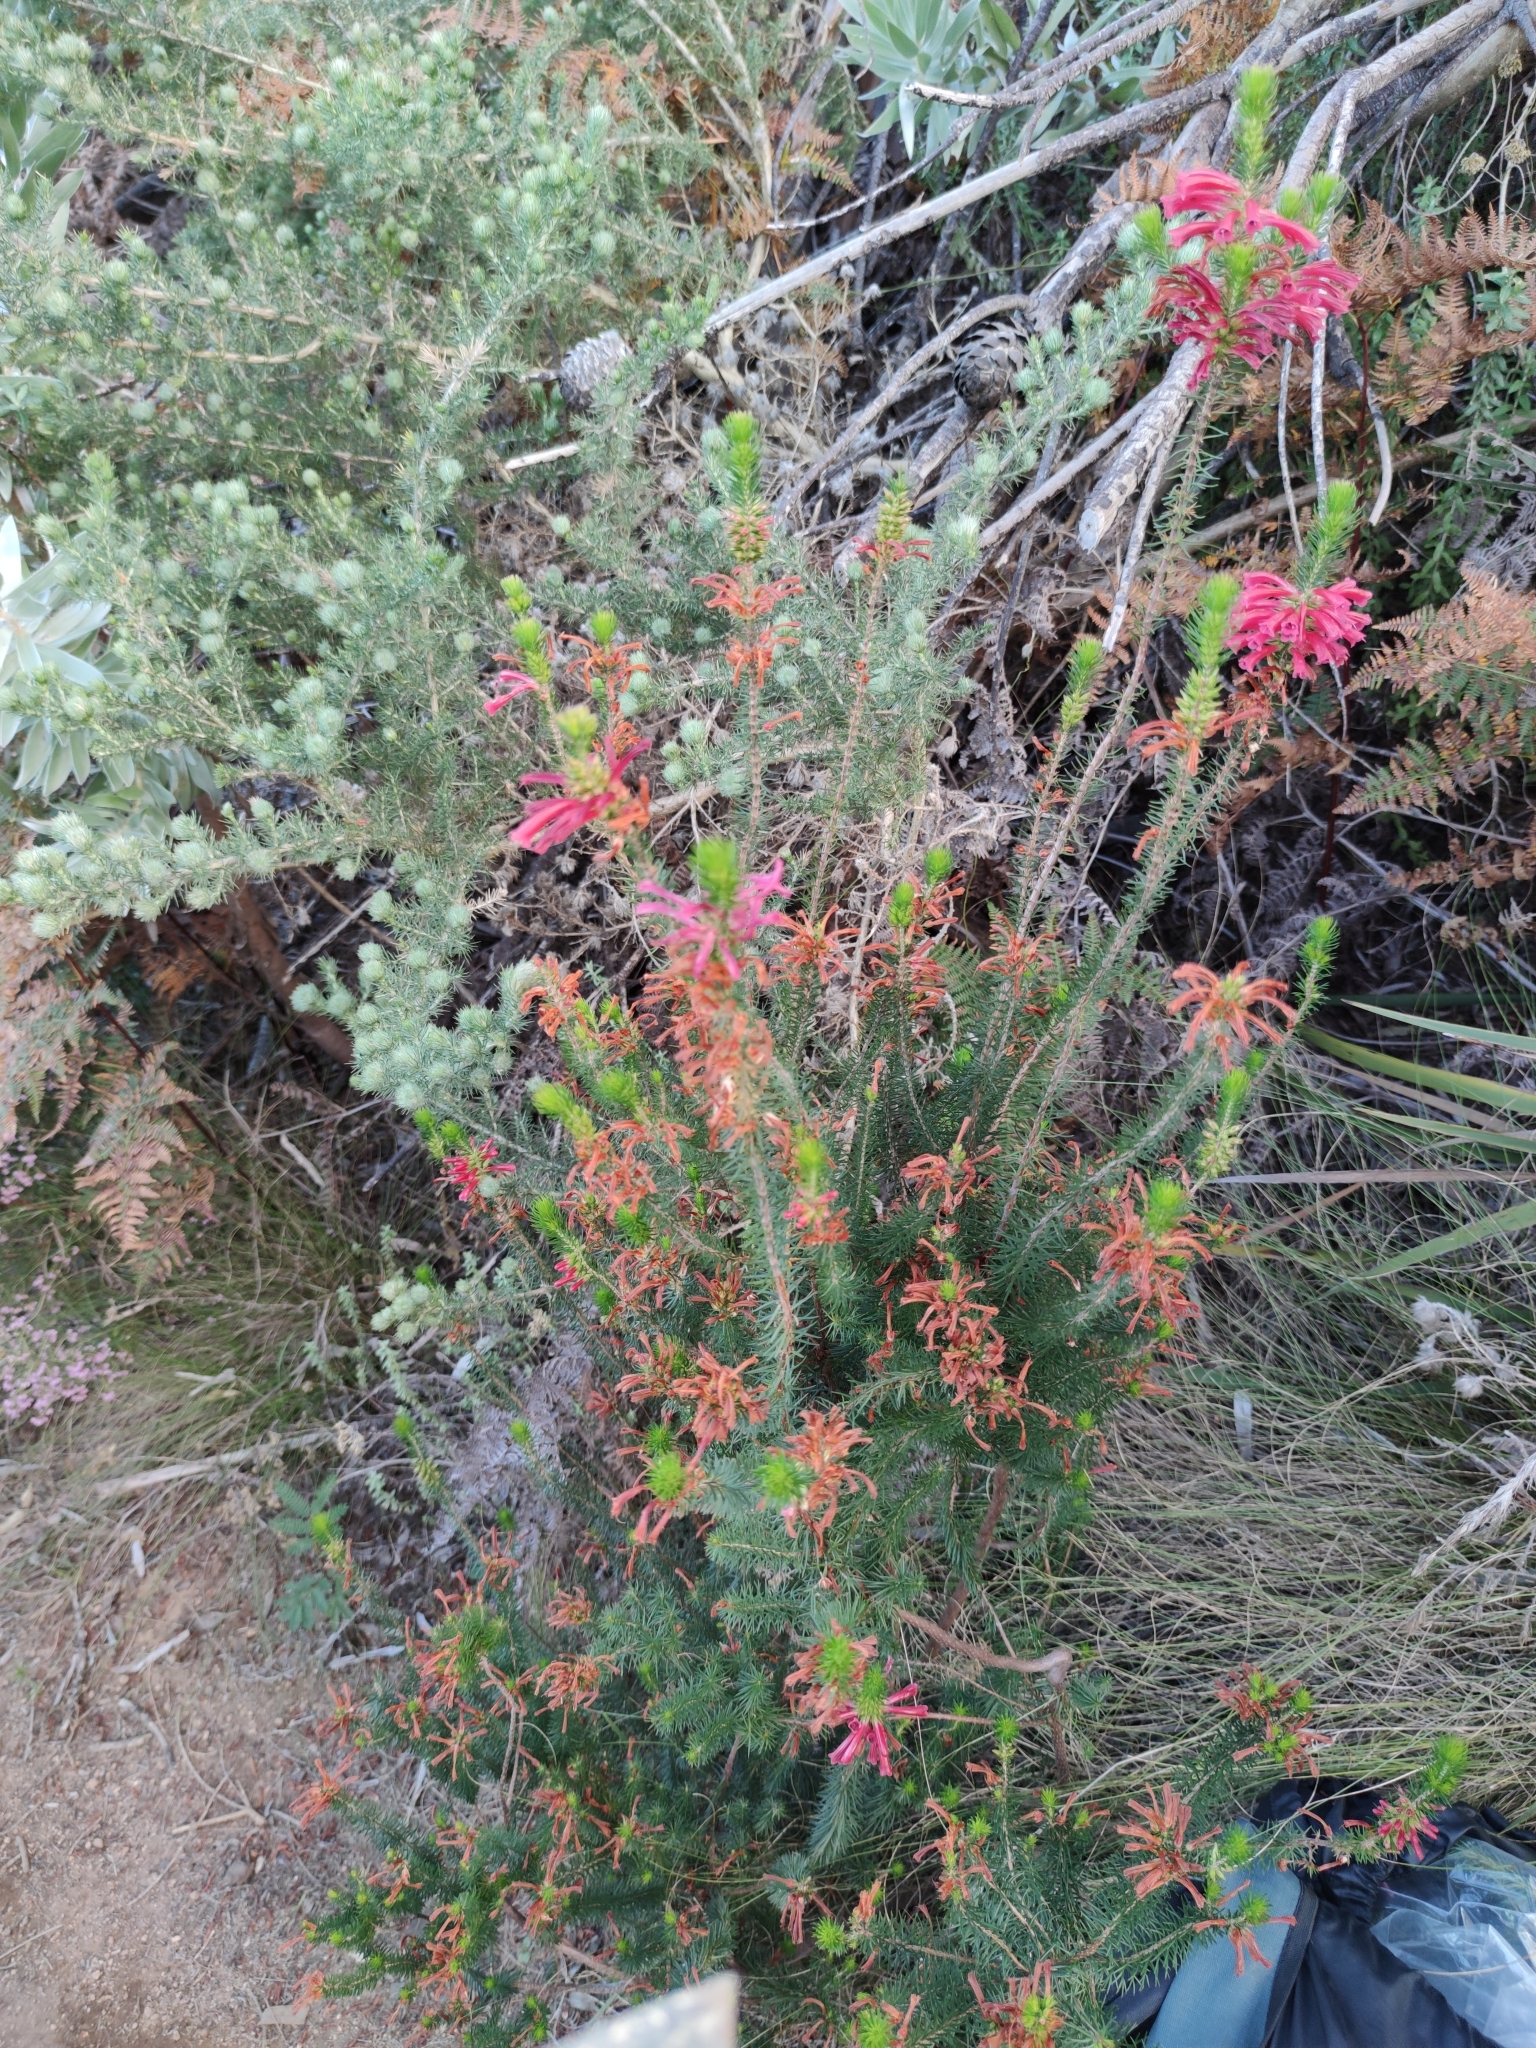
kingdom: Plantae
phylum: Tracheophyta
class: Magnoliopsida
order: Ericales
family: Ericaceae
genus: Erica
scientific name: Erica abietina
